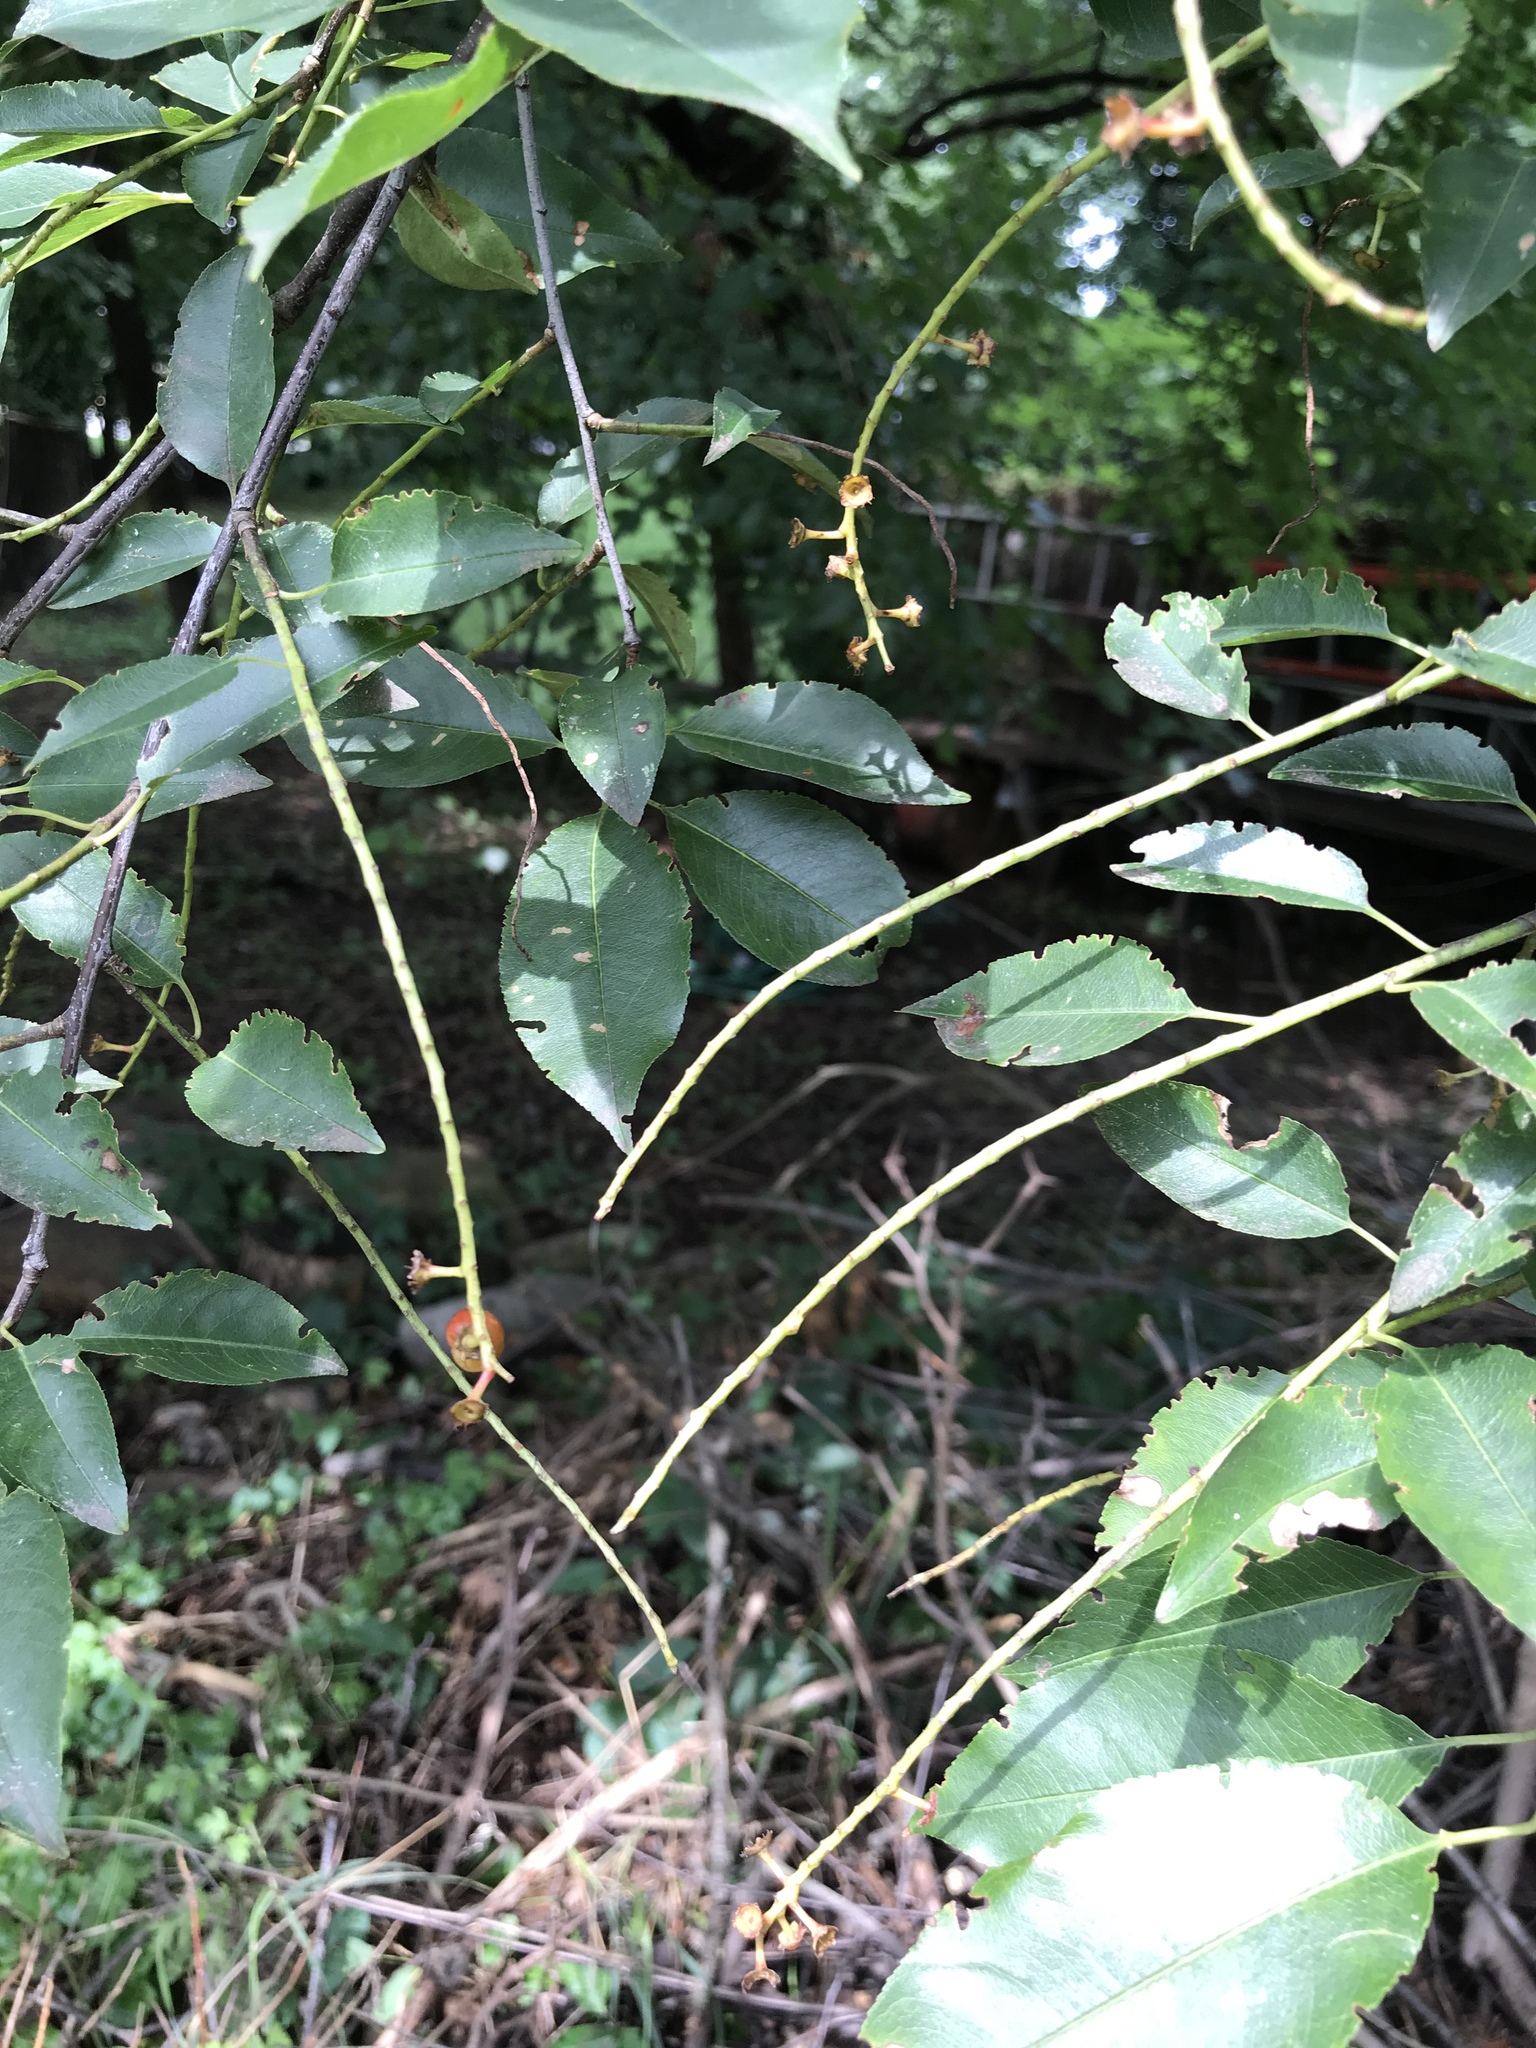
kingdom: Plantae
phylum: Tracheophyta
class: Magnoliopsida
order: Rosales
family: Rosaceae
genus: Prunus
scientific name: Prunus serotina
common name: Black cherry
